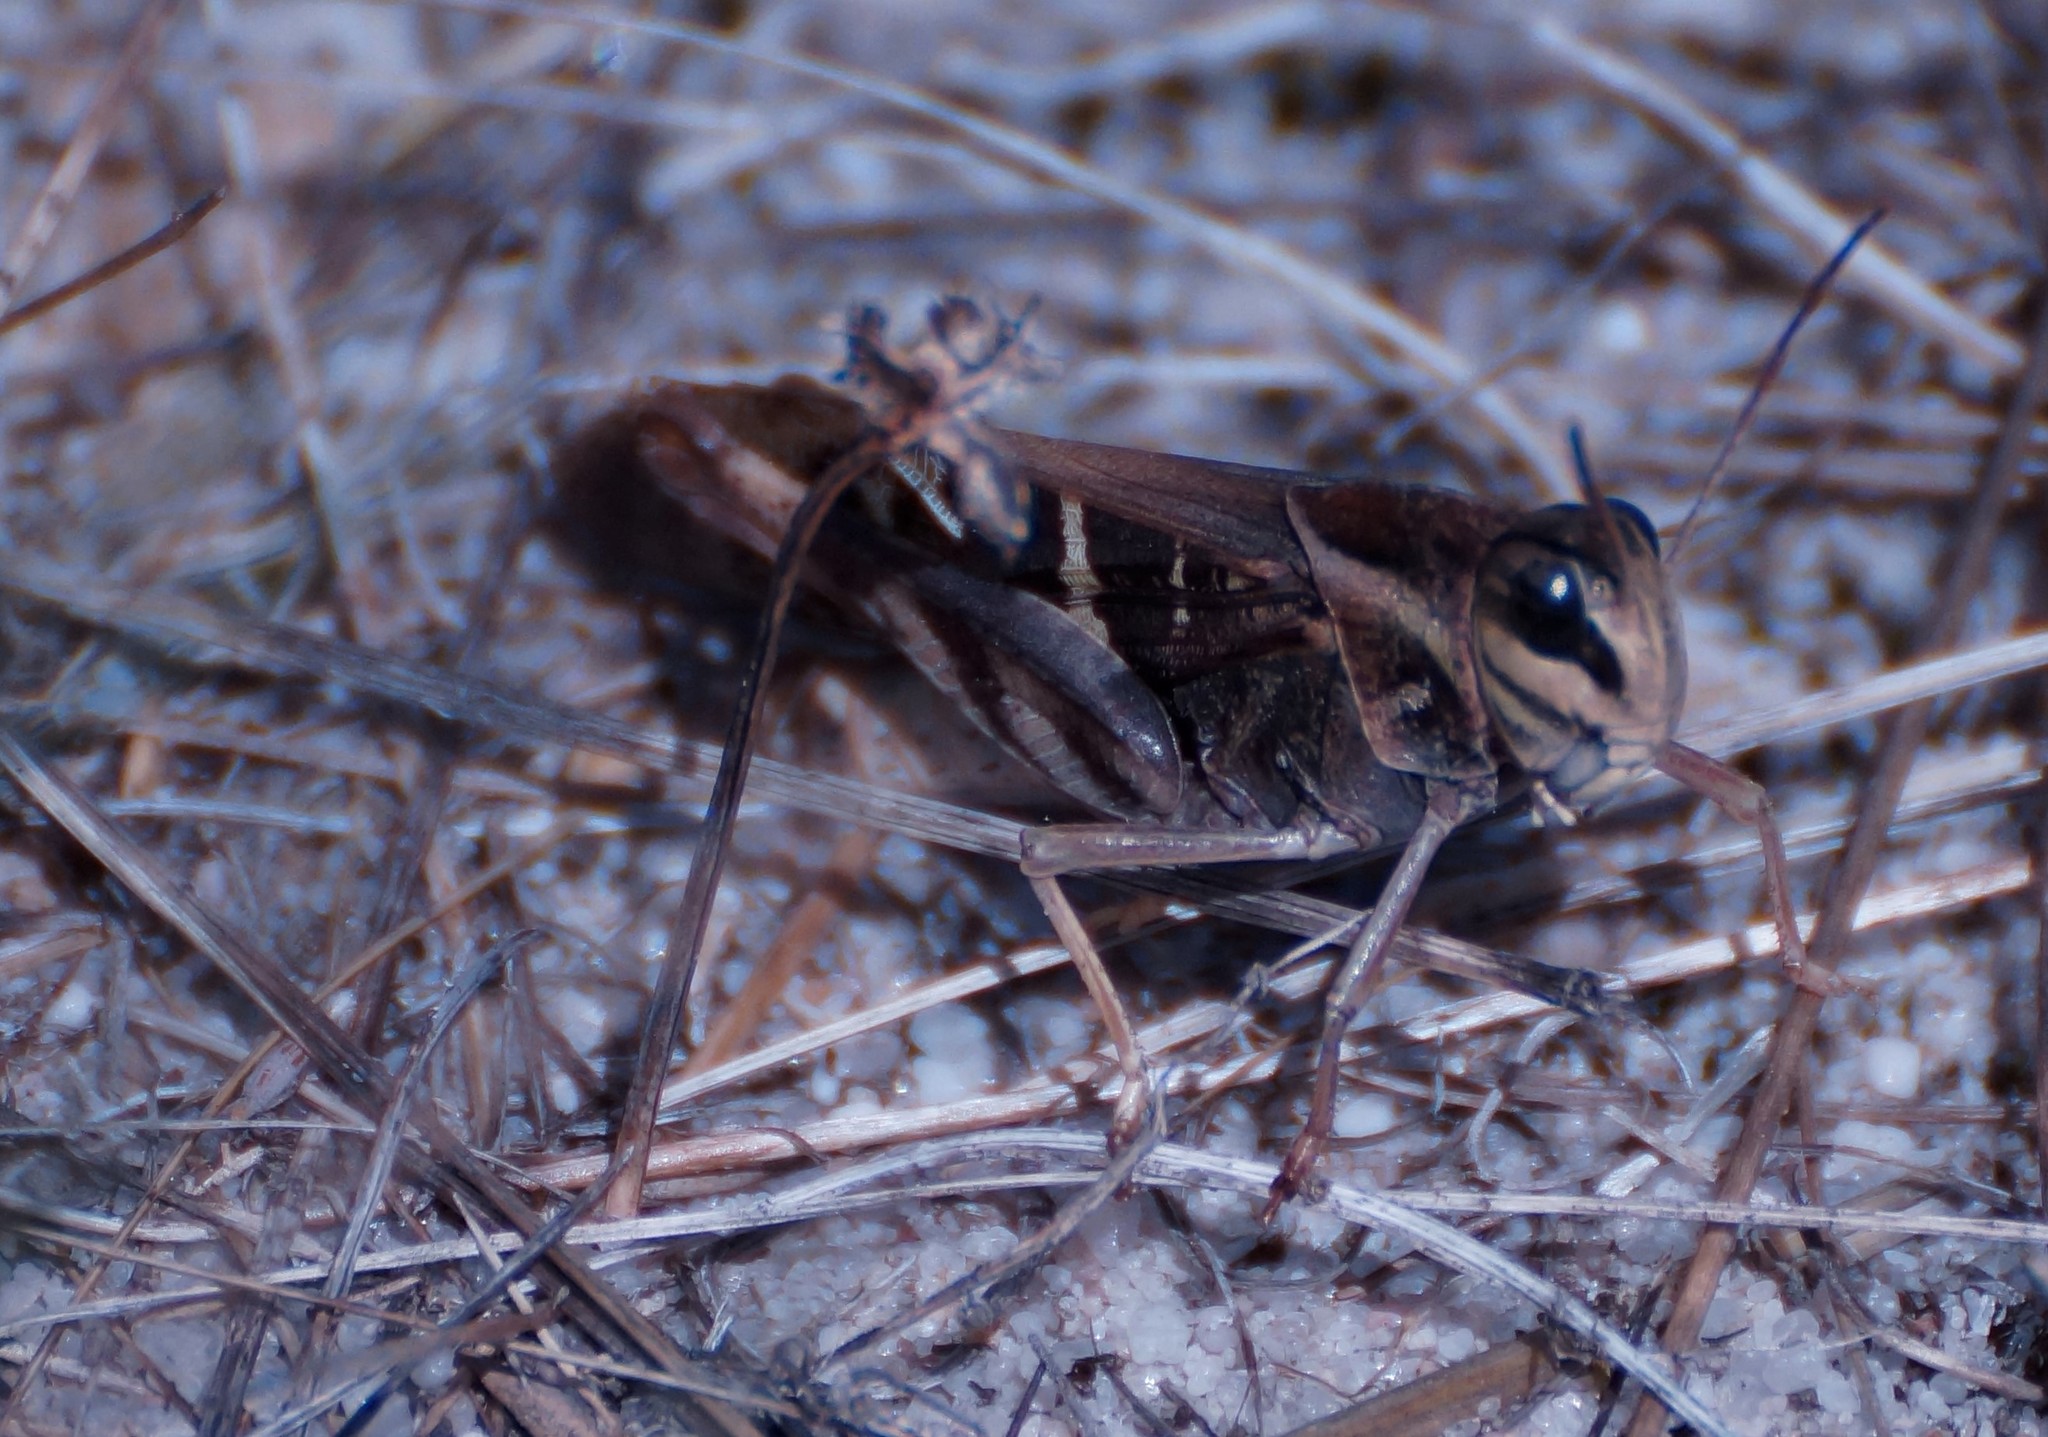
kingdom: Animalia
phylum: Arthropoda
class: Insecta
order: Orthoptera
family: Acrididae
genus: Gastrimargus
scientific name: Gastrimargus musicus
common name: Yellow-winged locust
